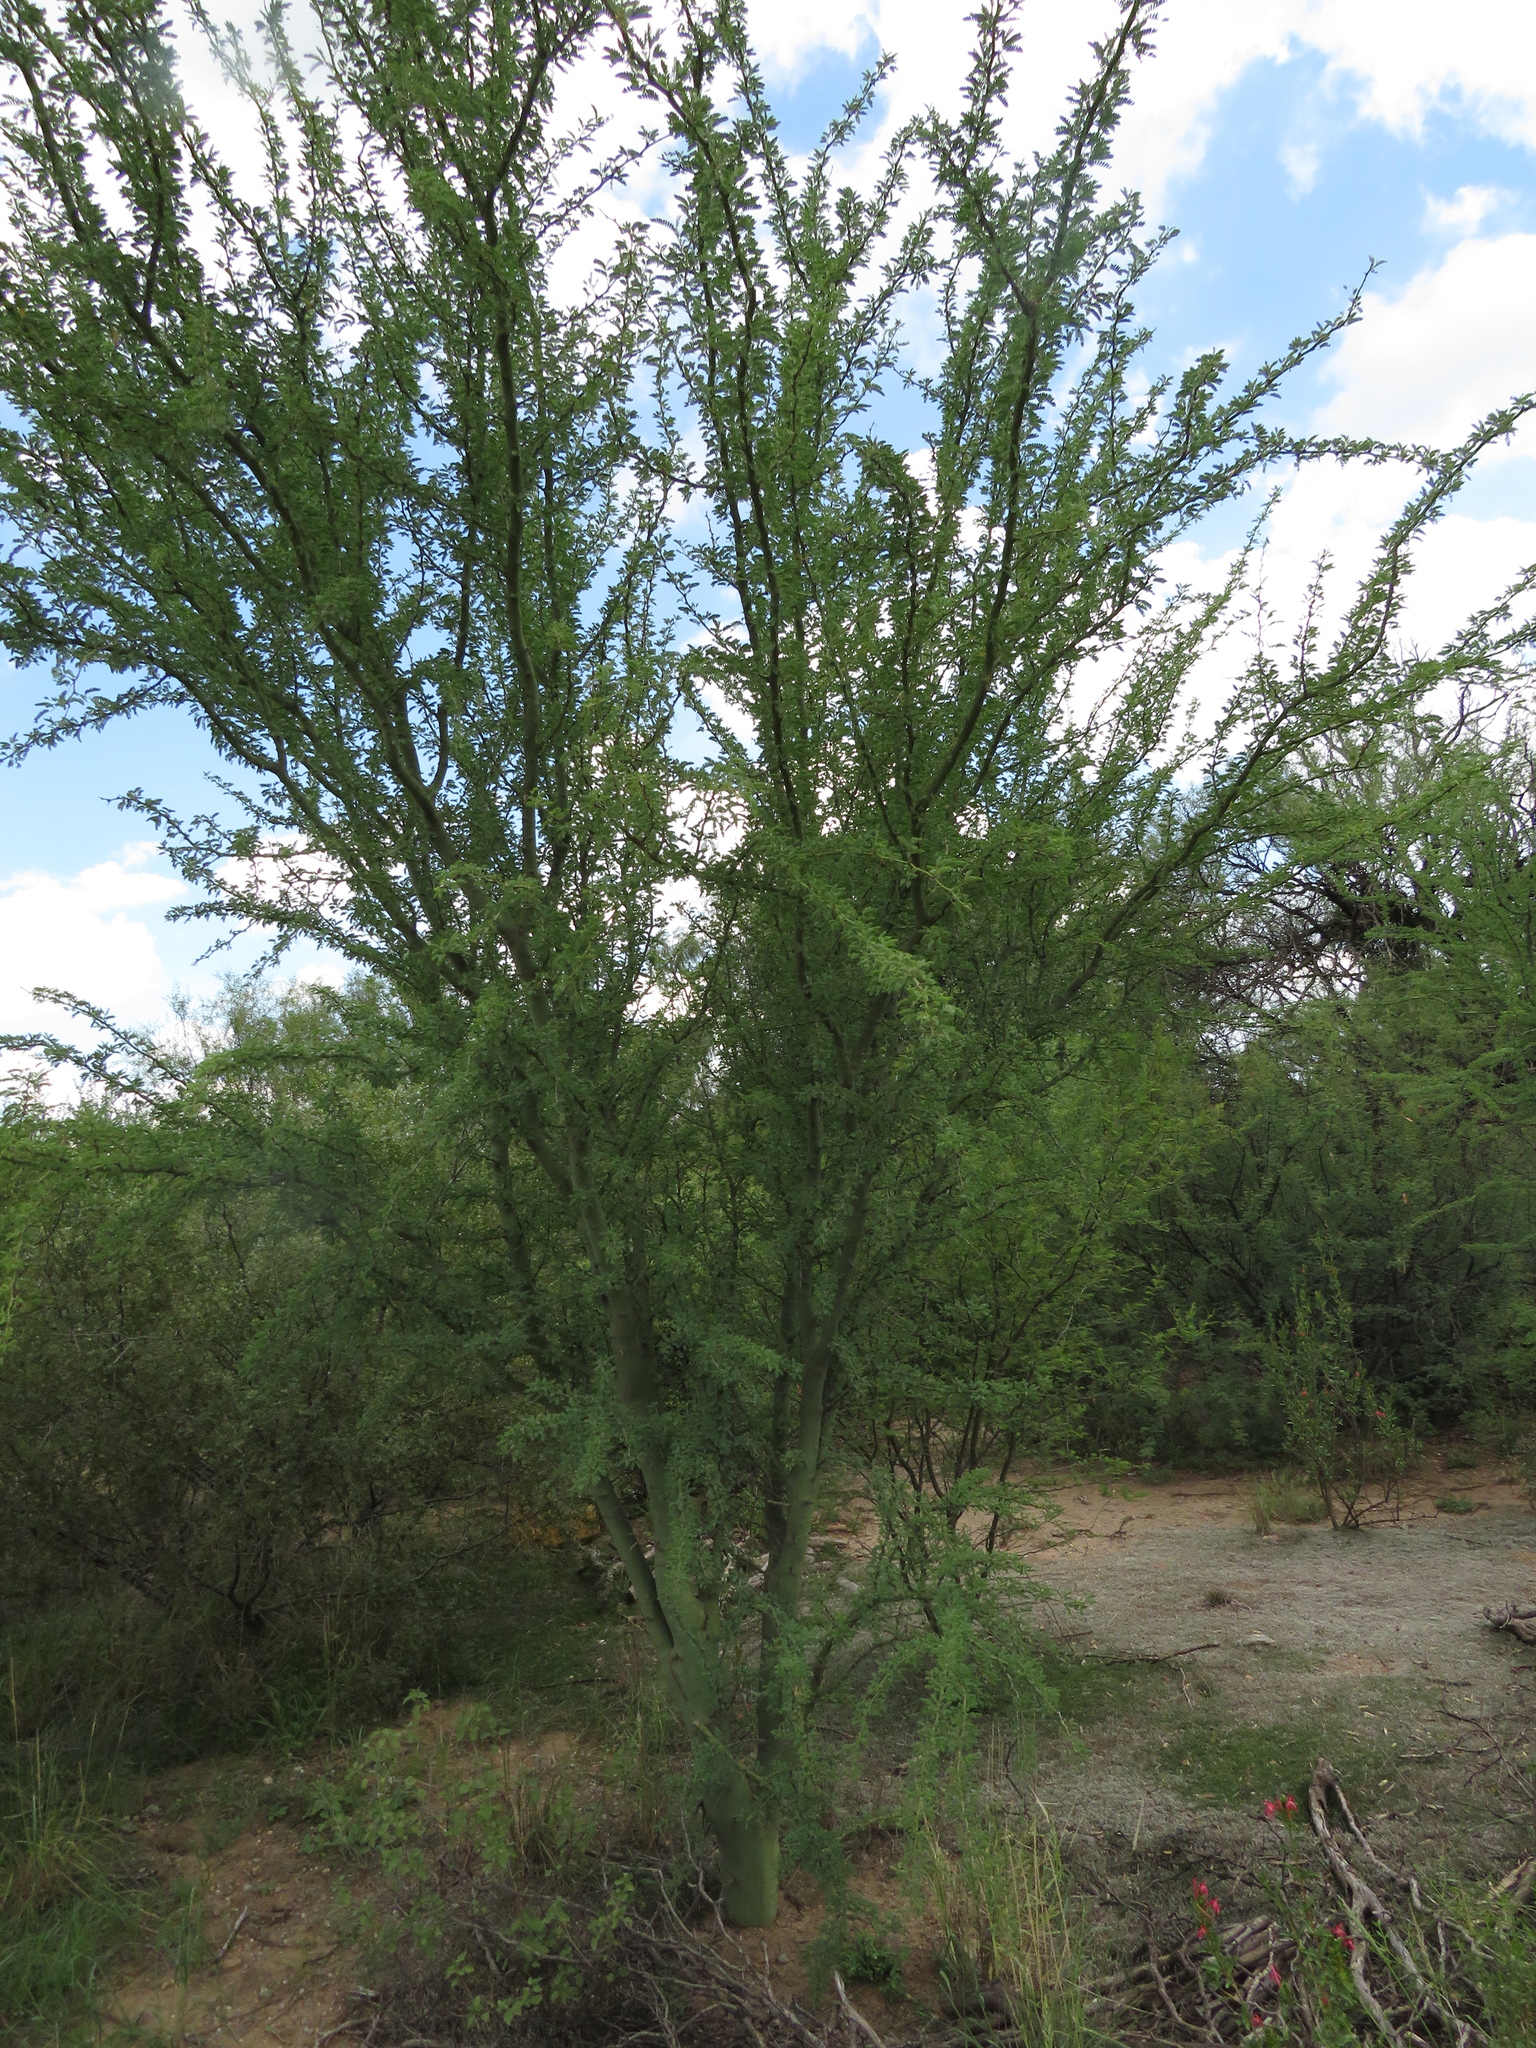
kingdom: Plantae
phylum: Tracheophyta
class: Magnoliopsida
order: Fabales
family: Fabaceae
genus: Parkinsonia
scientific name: Parkinsonia praecox
